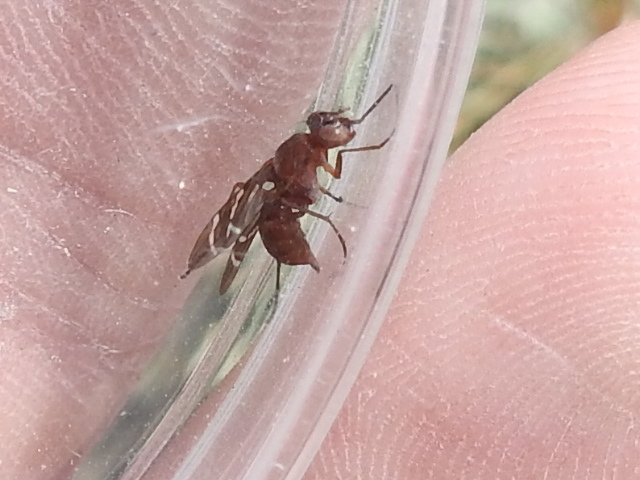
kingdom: Animalia
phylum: Arthropoda
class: Insecta
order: Diptera
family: Ulidiidae
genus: Tritoxa
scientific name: Tritoxa incurva
